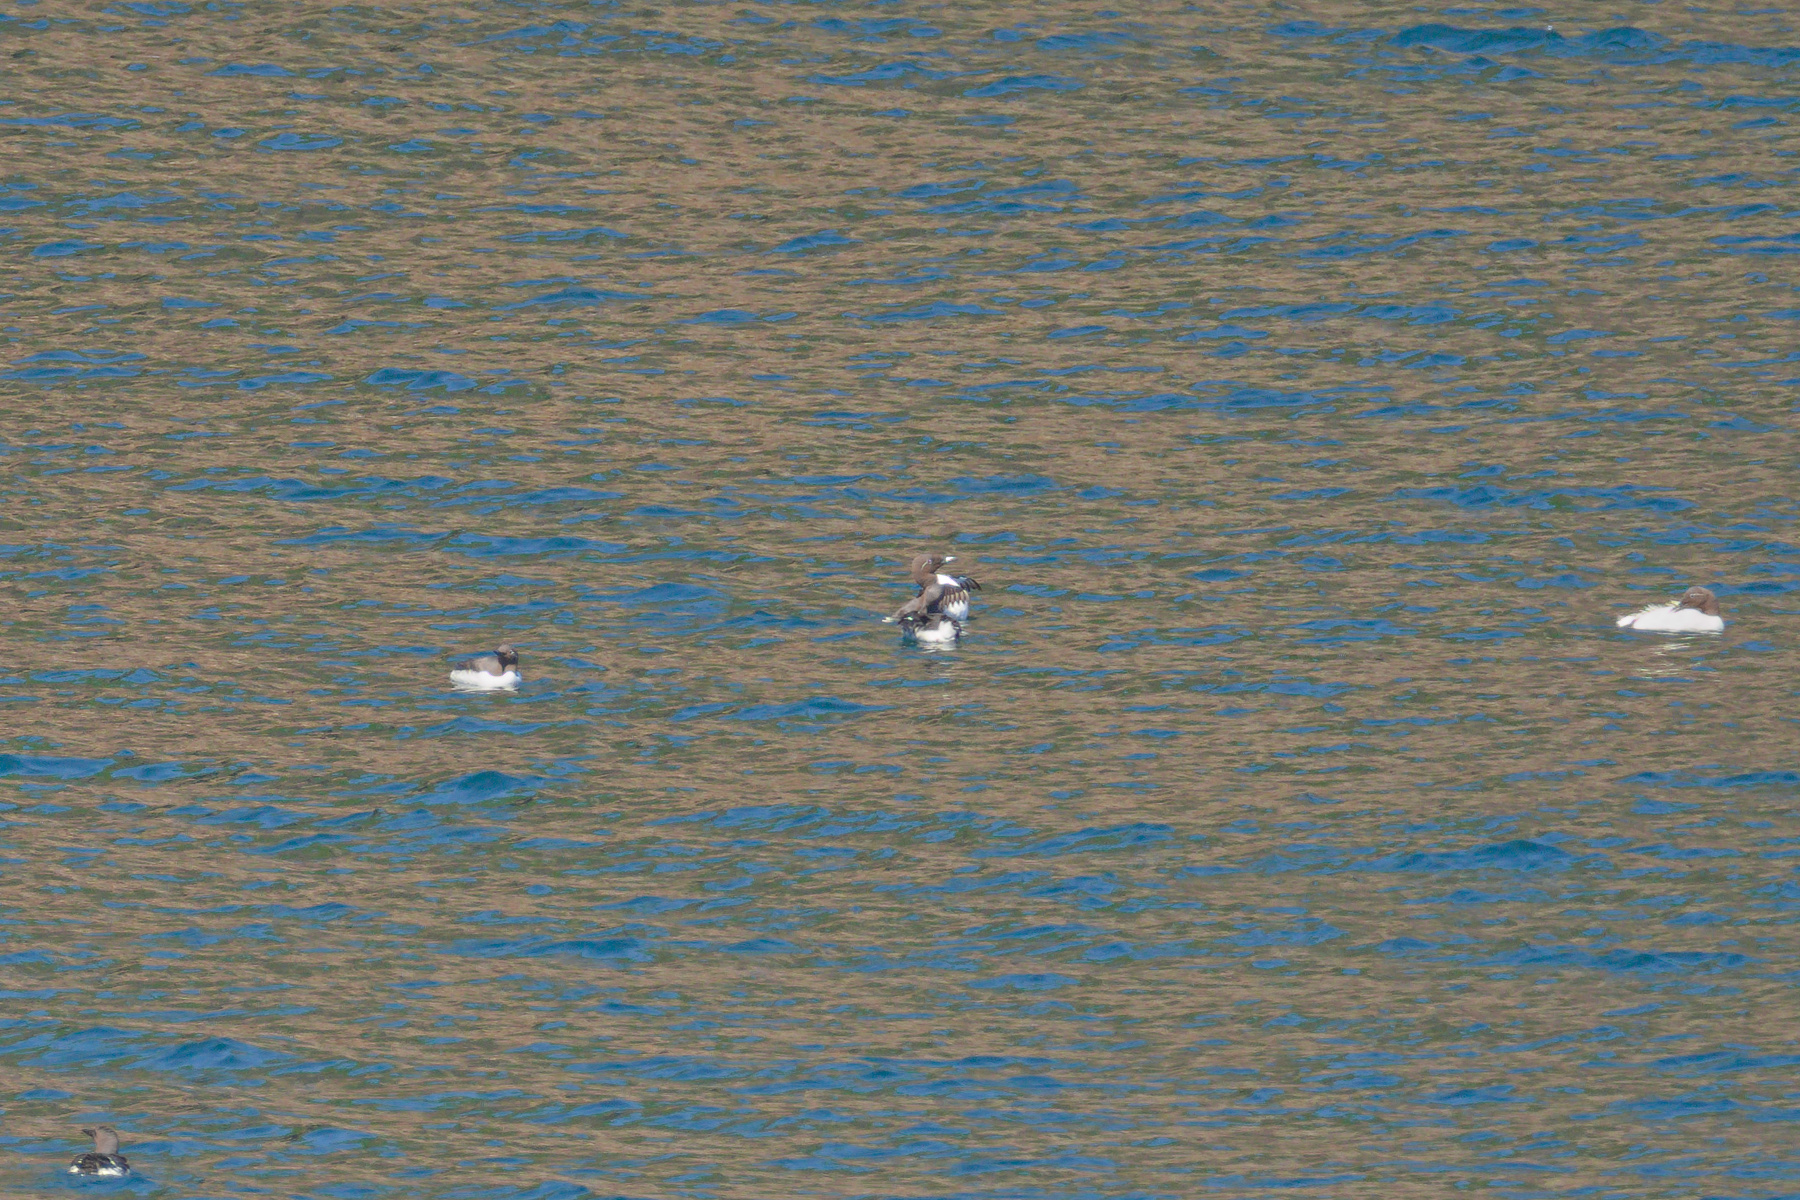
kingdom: Animalia
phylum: Chordata
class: Aves
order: Charadriiformes
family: Alcidae
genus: Uria
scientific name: Uria aalge
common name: Common murre
